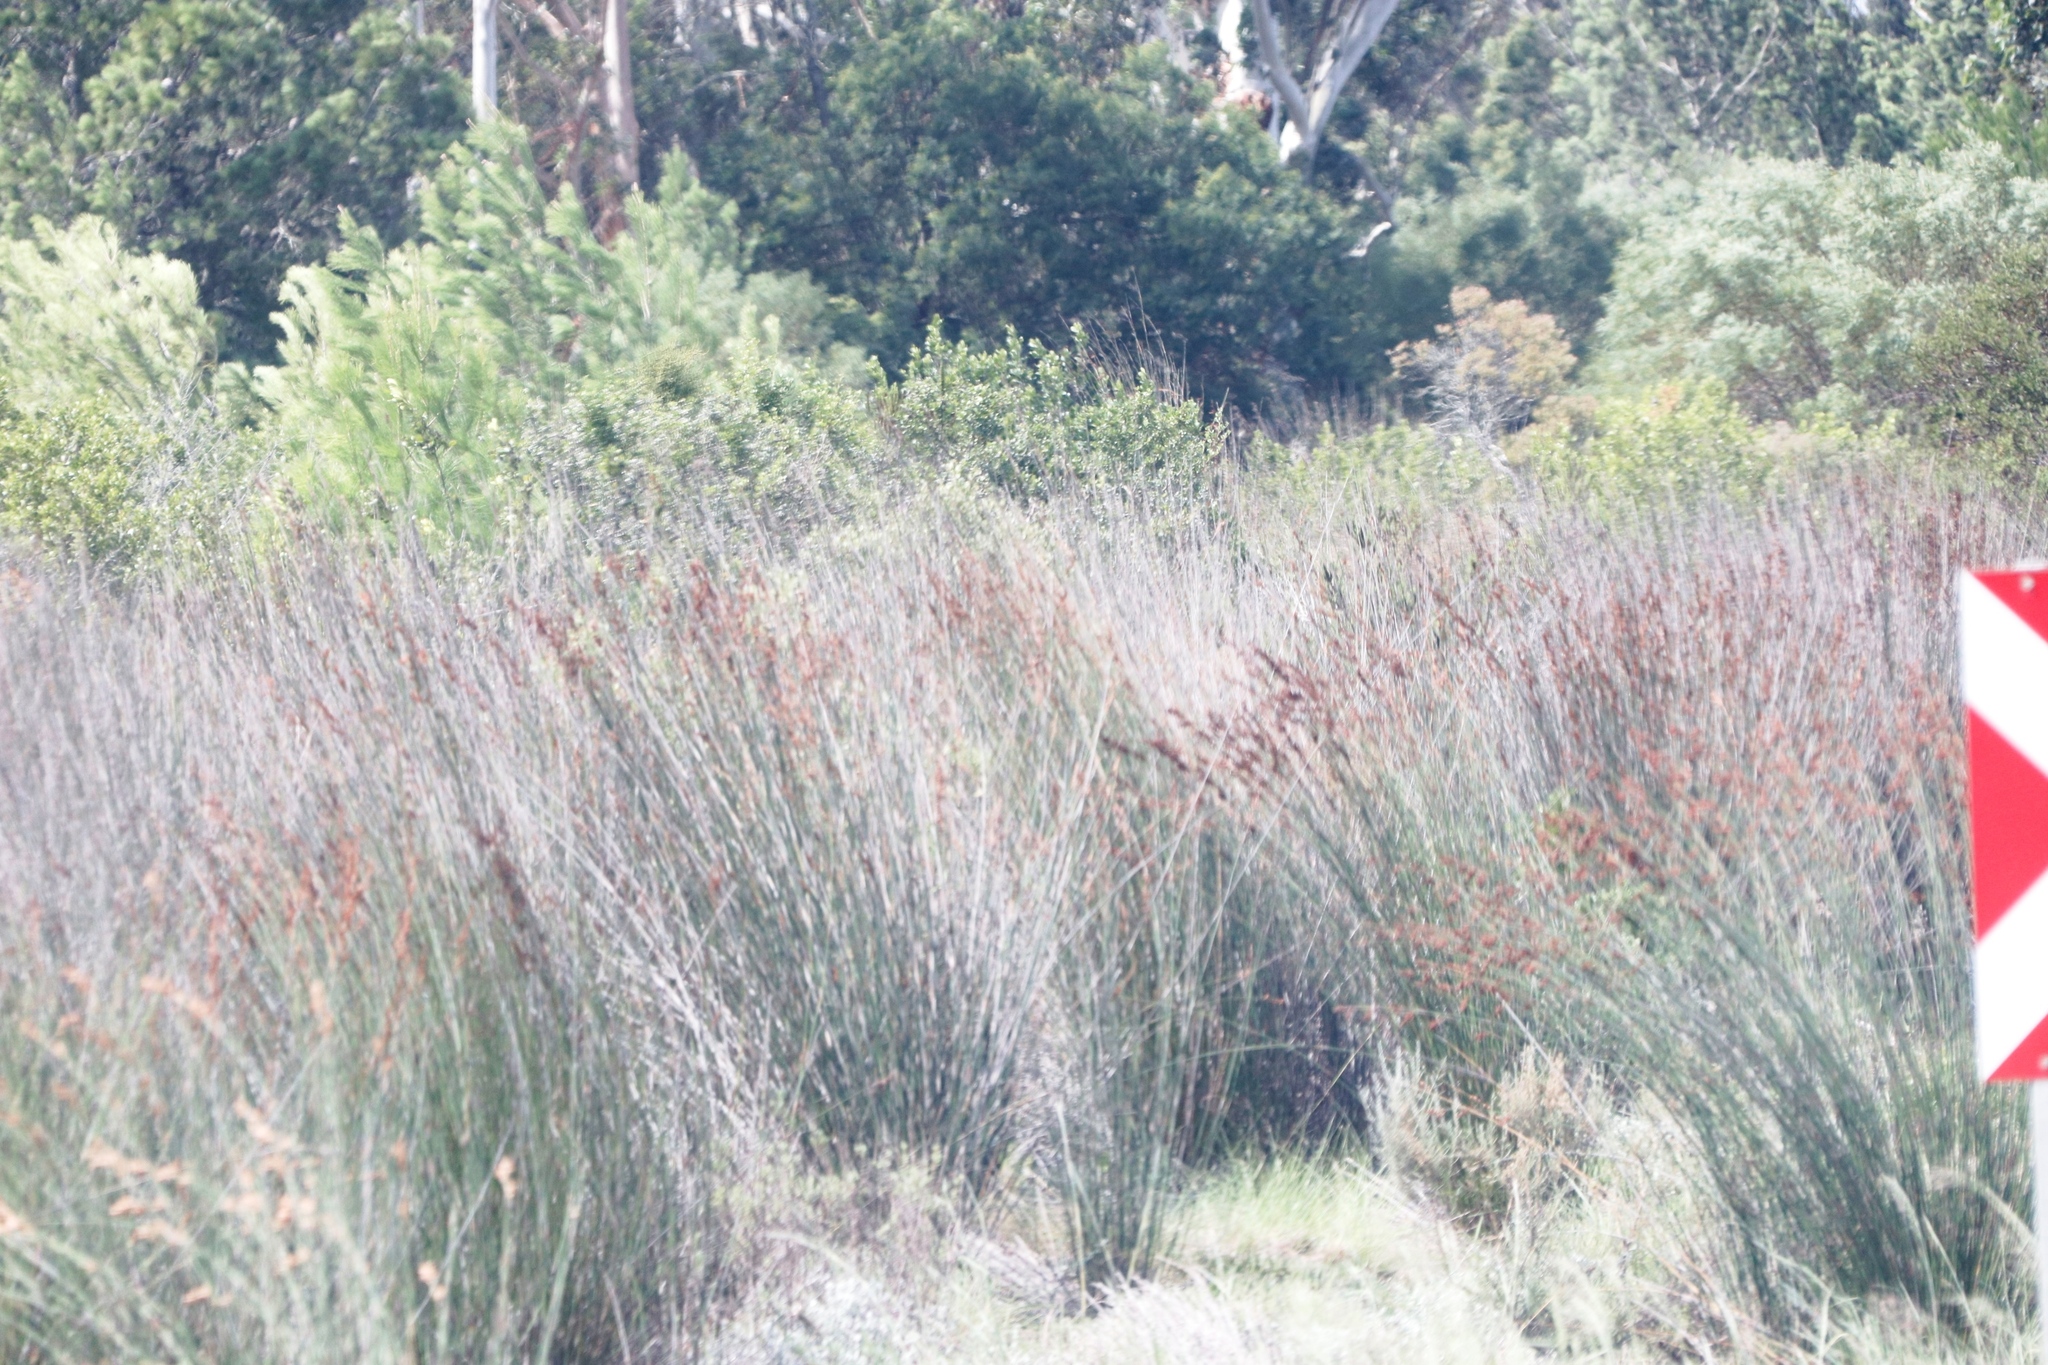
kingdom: Plantae
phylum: Tracheophyta
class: Liliopsida
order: Poales
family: Restionaceae
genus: Thamnochortus
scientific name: Thamnochortus insignis
